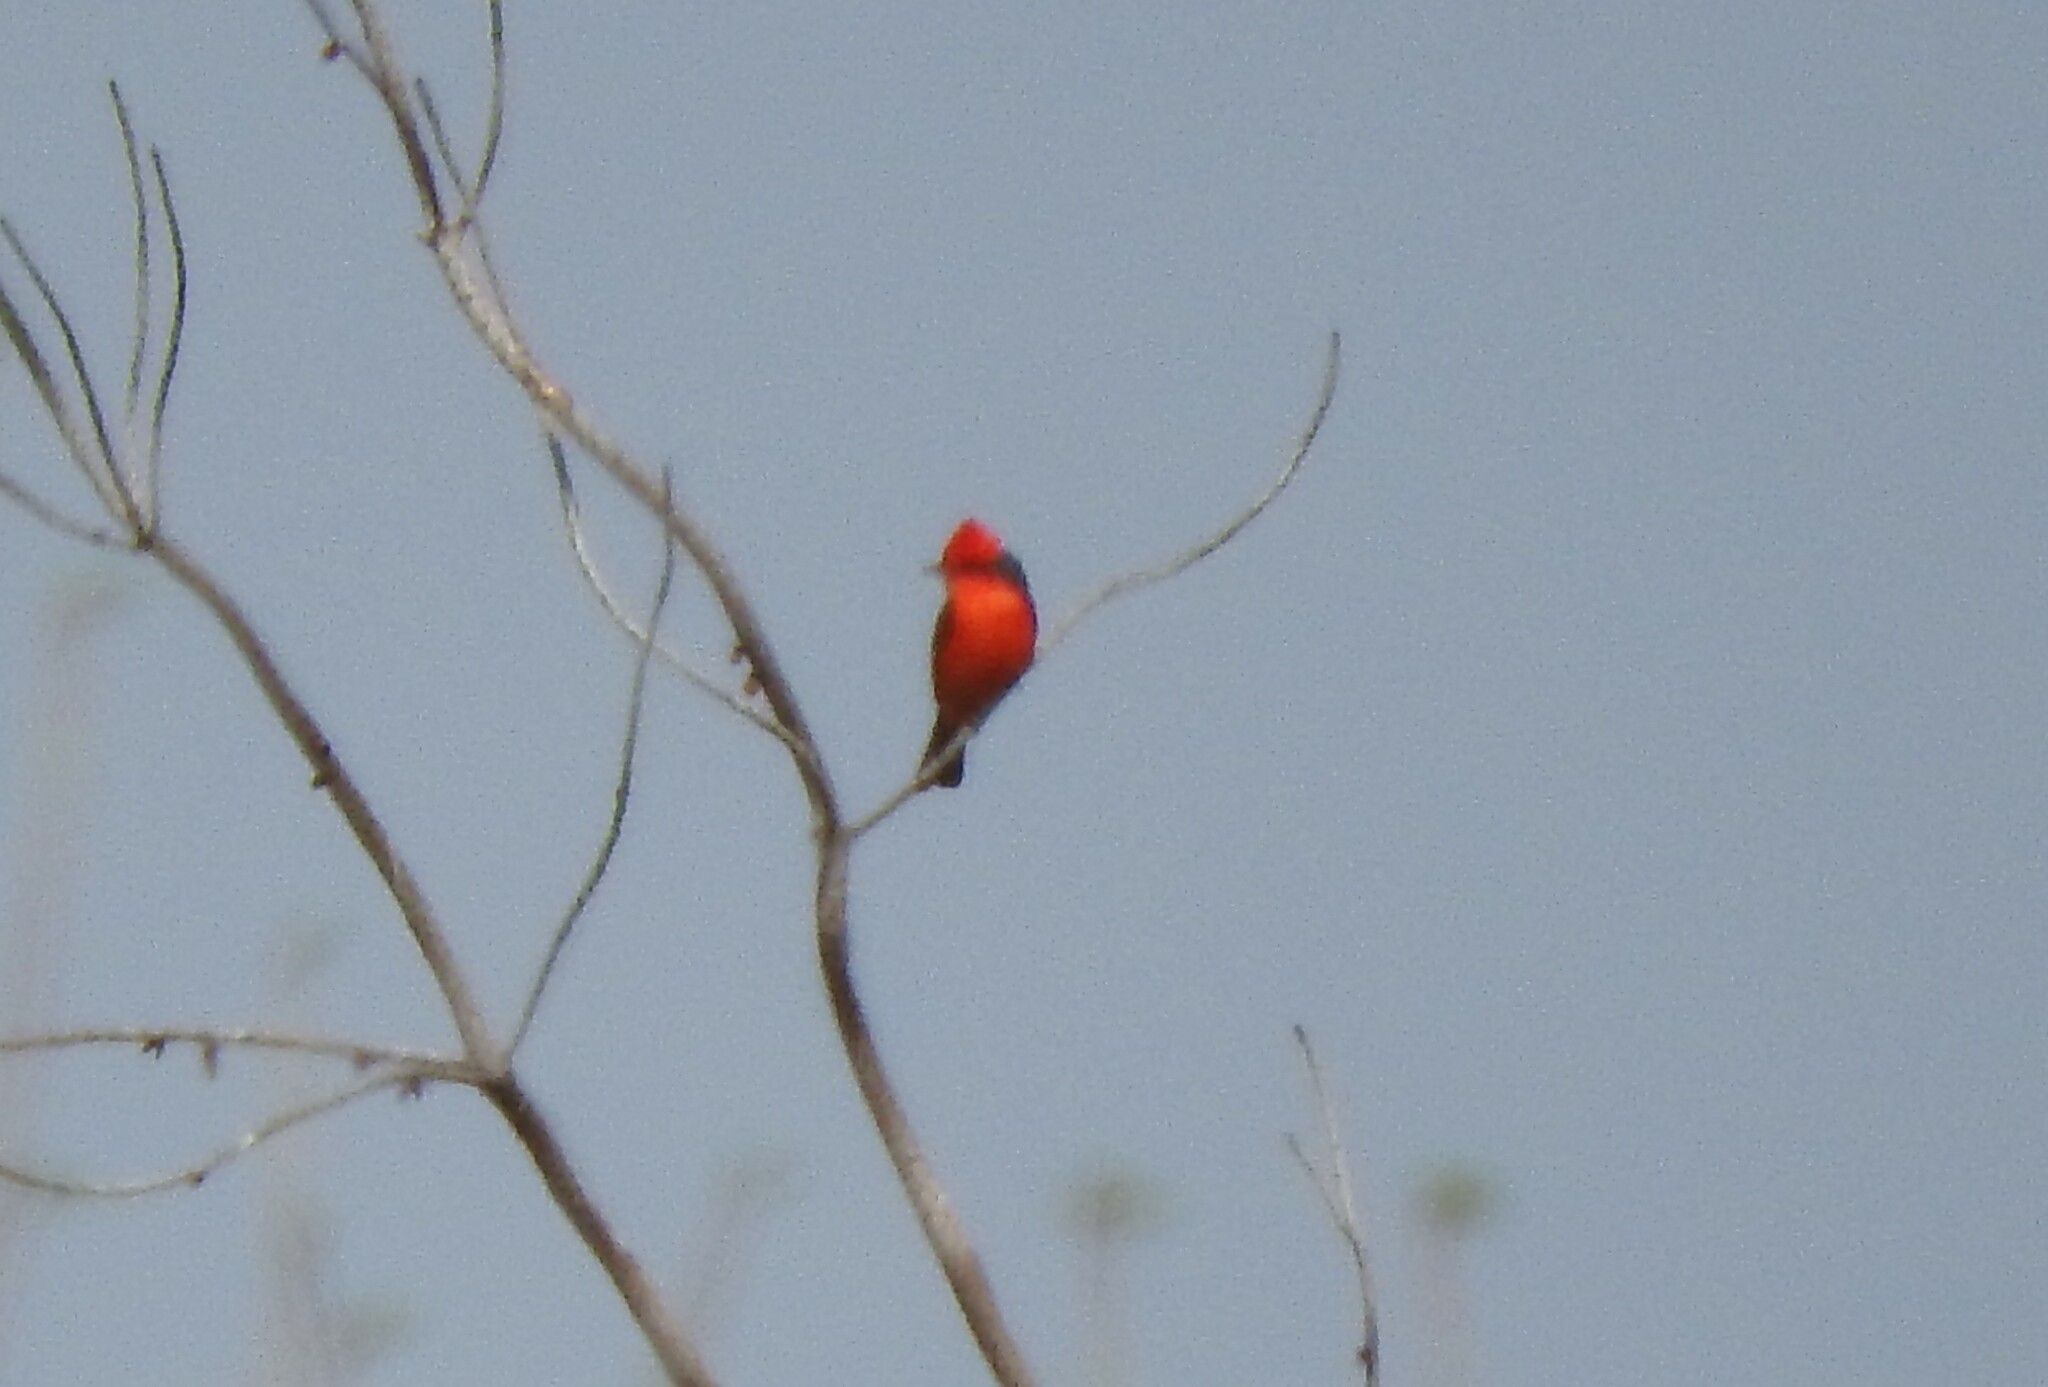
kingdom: Animalia
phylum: Chordata
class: Aves
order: Passeriformes
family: Tyrannidae
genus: Pyrocephalus
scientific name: Pyrocephalus rubinus
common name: Vermilion flycatcher
